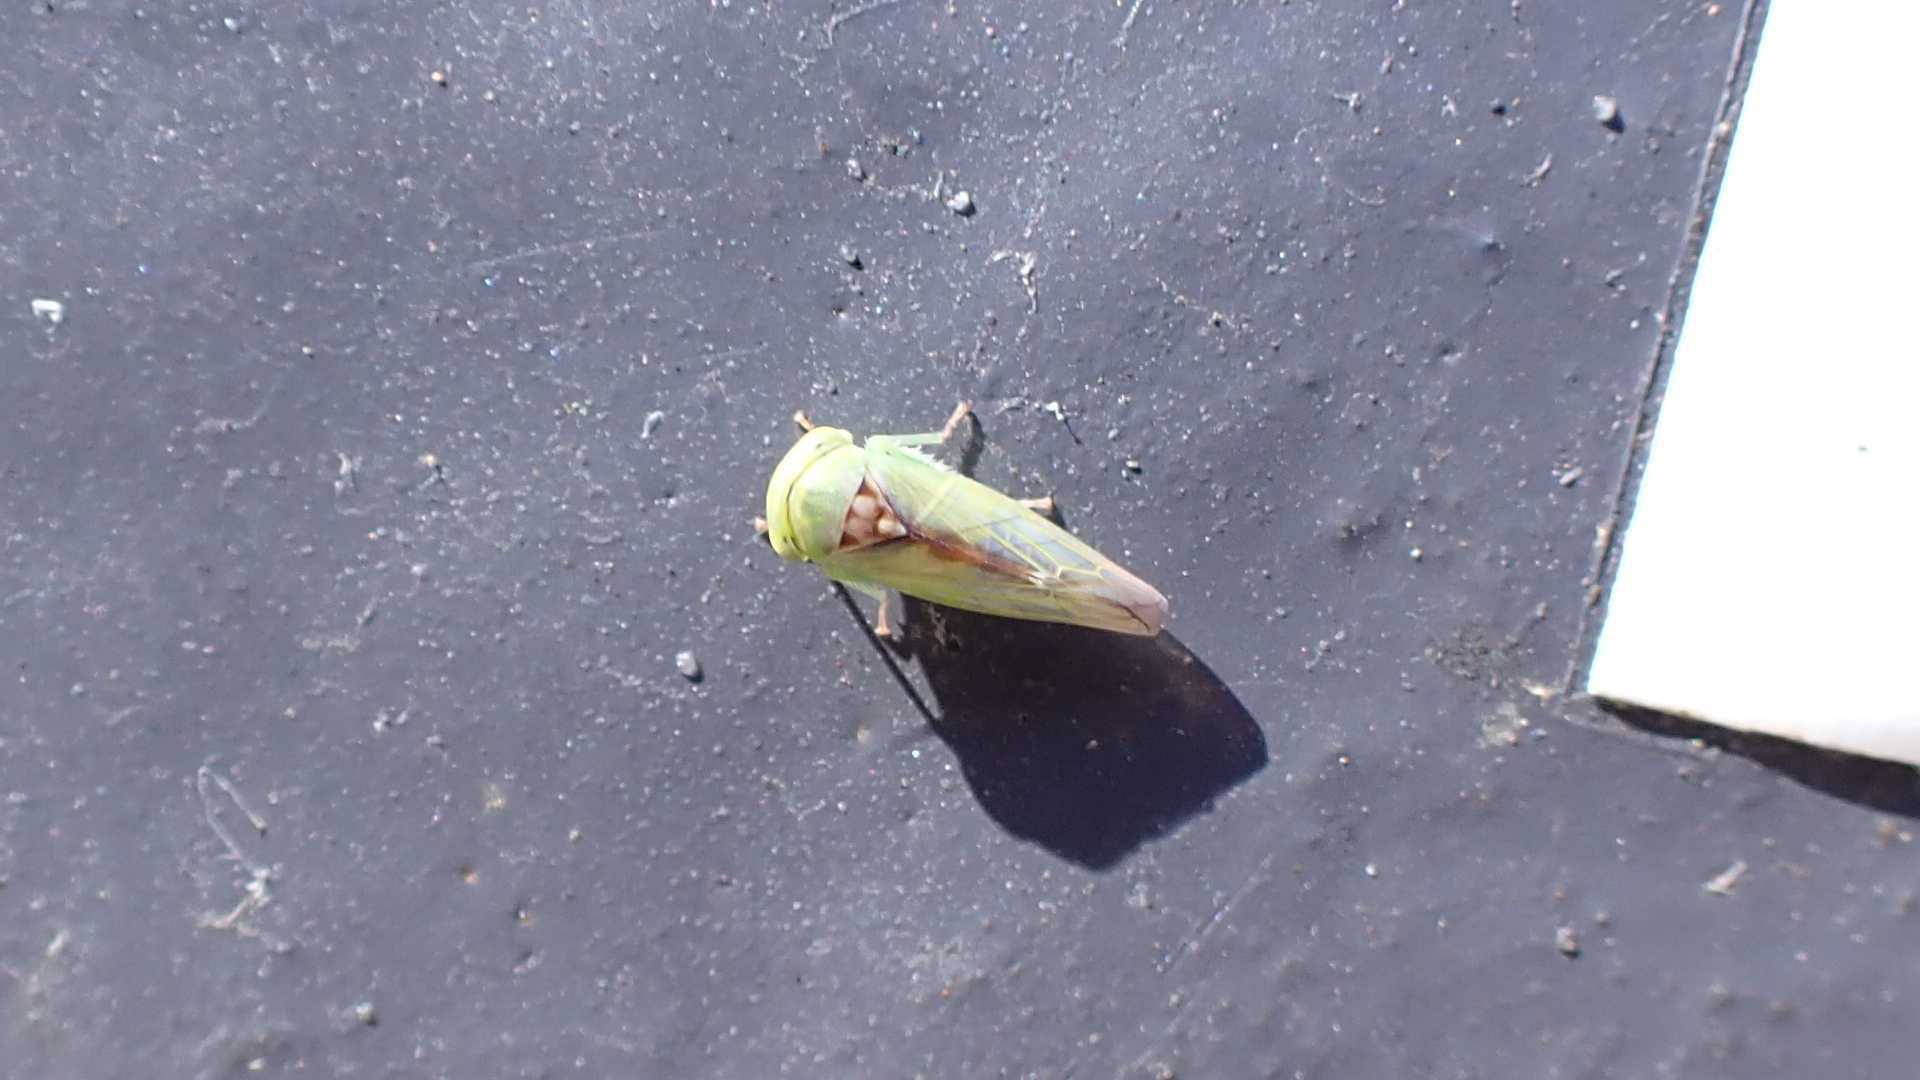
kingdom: Animalia
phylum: Arthropoda
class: Insecta
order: Hemiptera
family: Cicadellidae
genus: Viridicerus
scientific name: Viridicerus ustulatus
